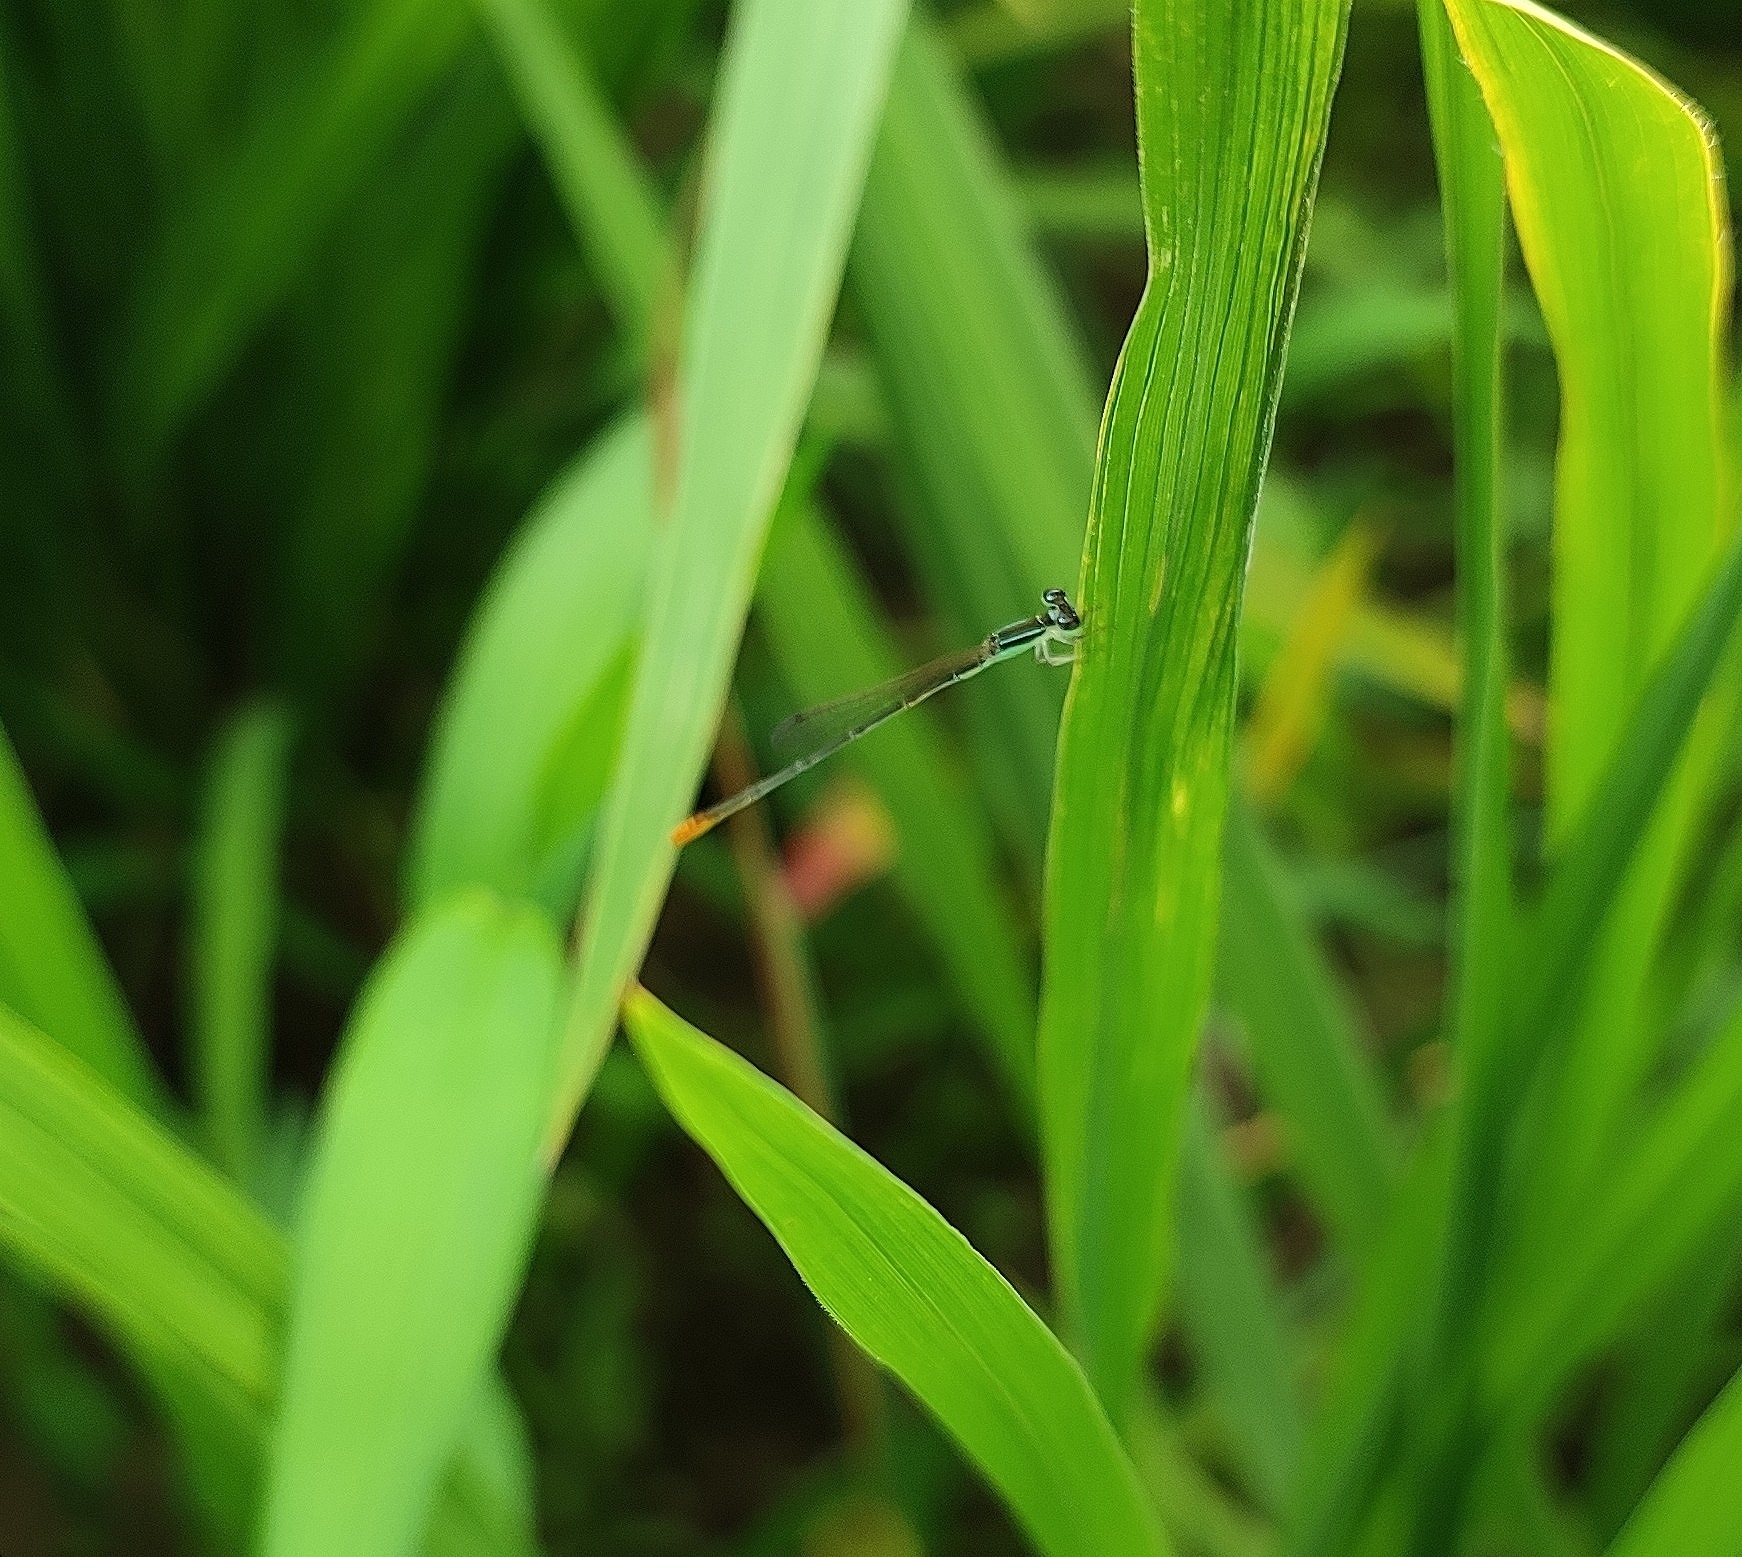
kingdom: Animalia
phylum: Arthropoda
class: Insecta
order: Odonata
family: Coenagrionidae
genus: Agriocnemis
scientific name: Agriocnemis pygmaea
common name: Pygmy wisp
